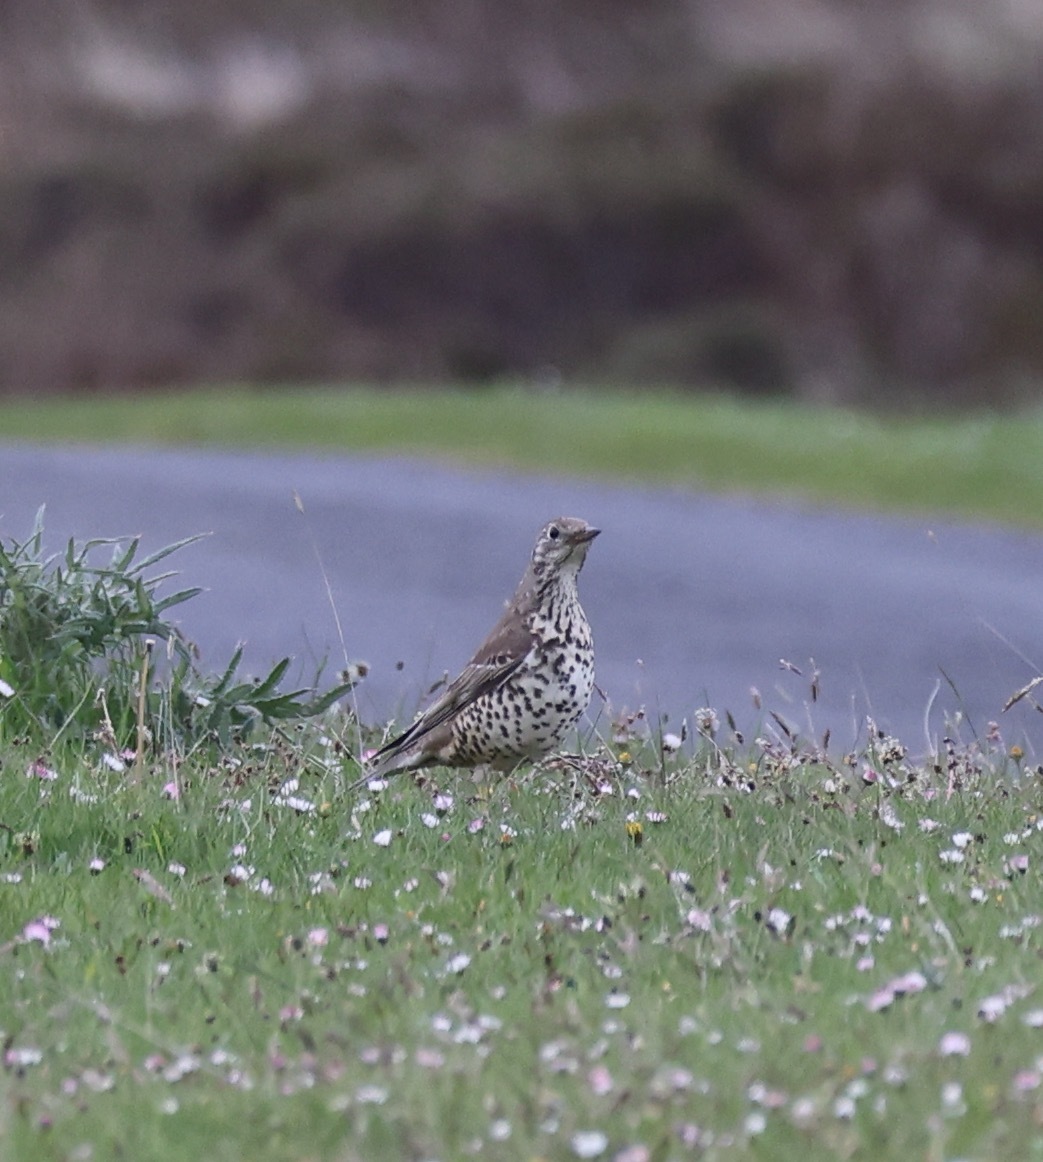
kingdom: Animalia
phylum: Chordata
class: Aves
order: Passeriformes
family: Turdidae
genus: Turdus
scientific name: Turdus viscivorus
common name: Mistle thrush
